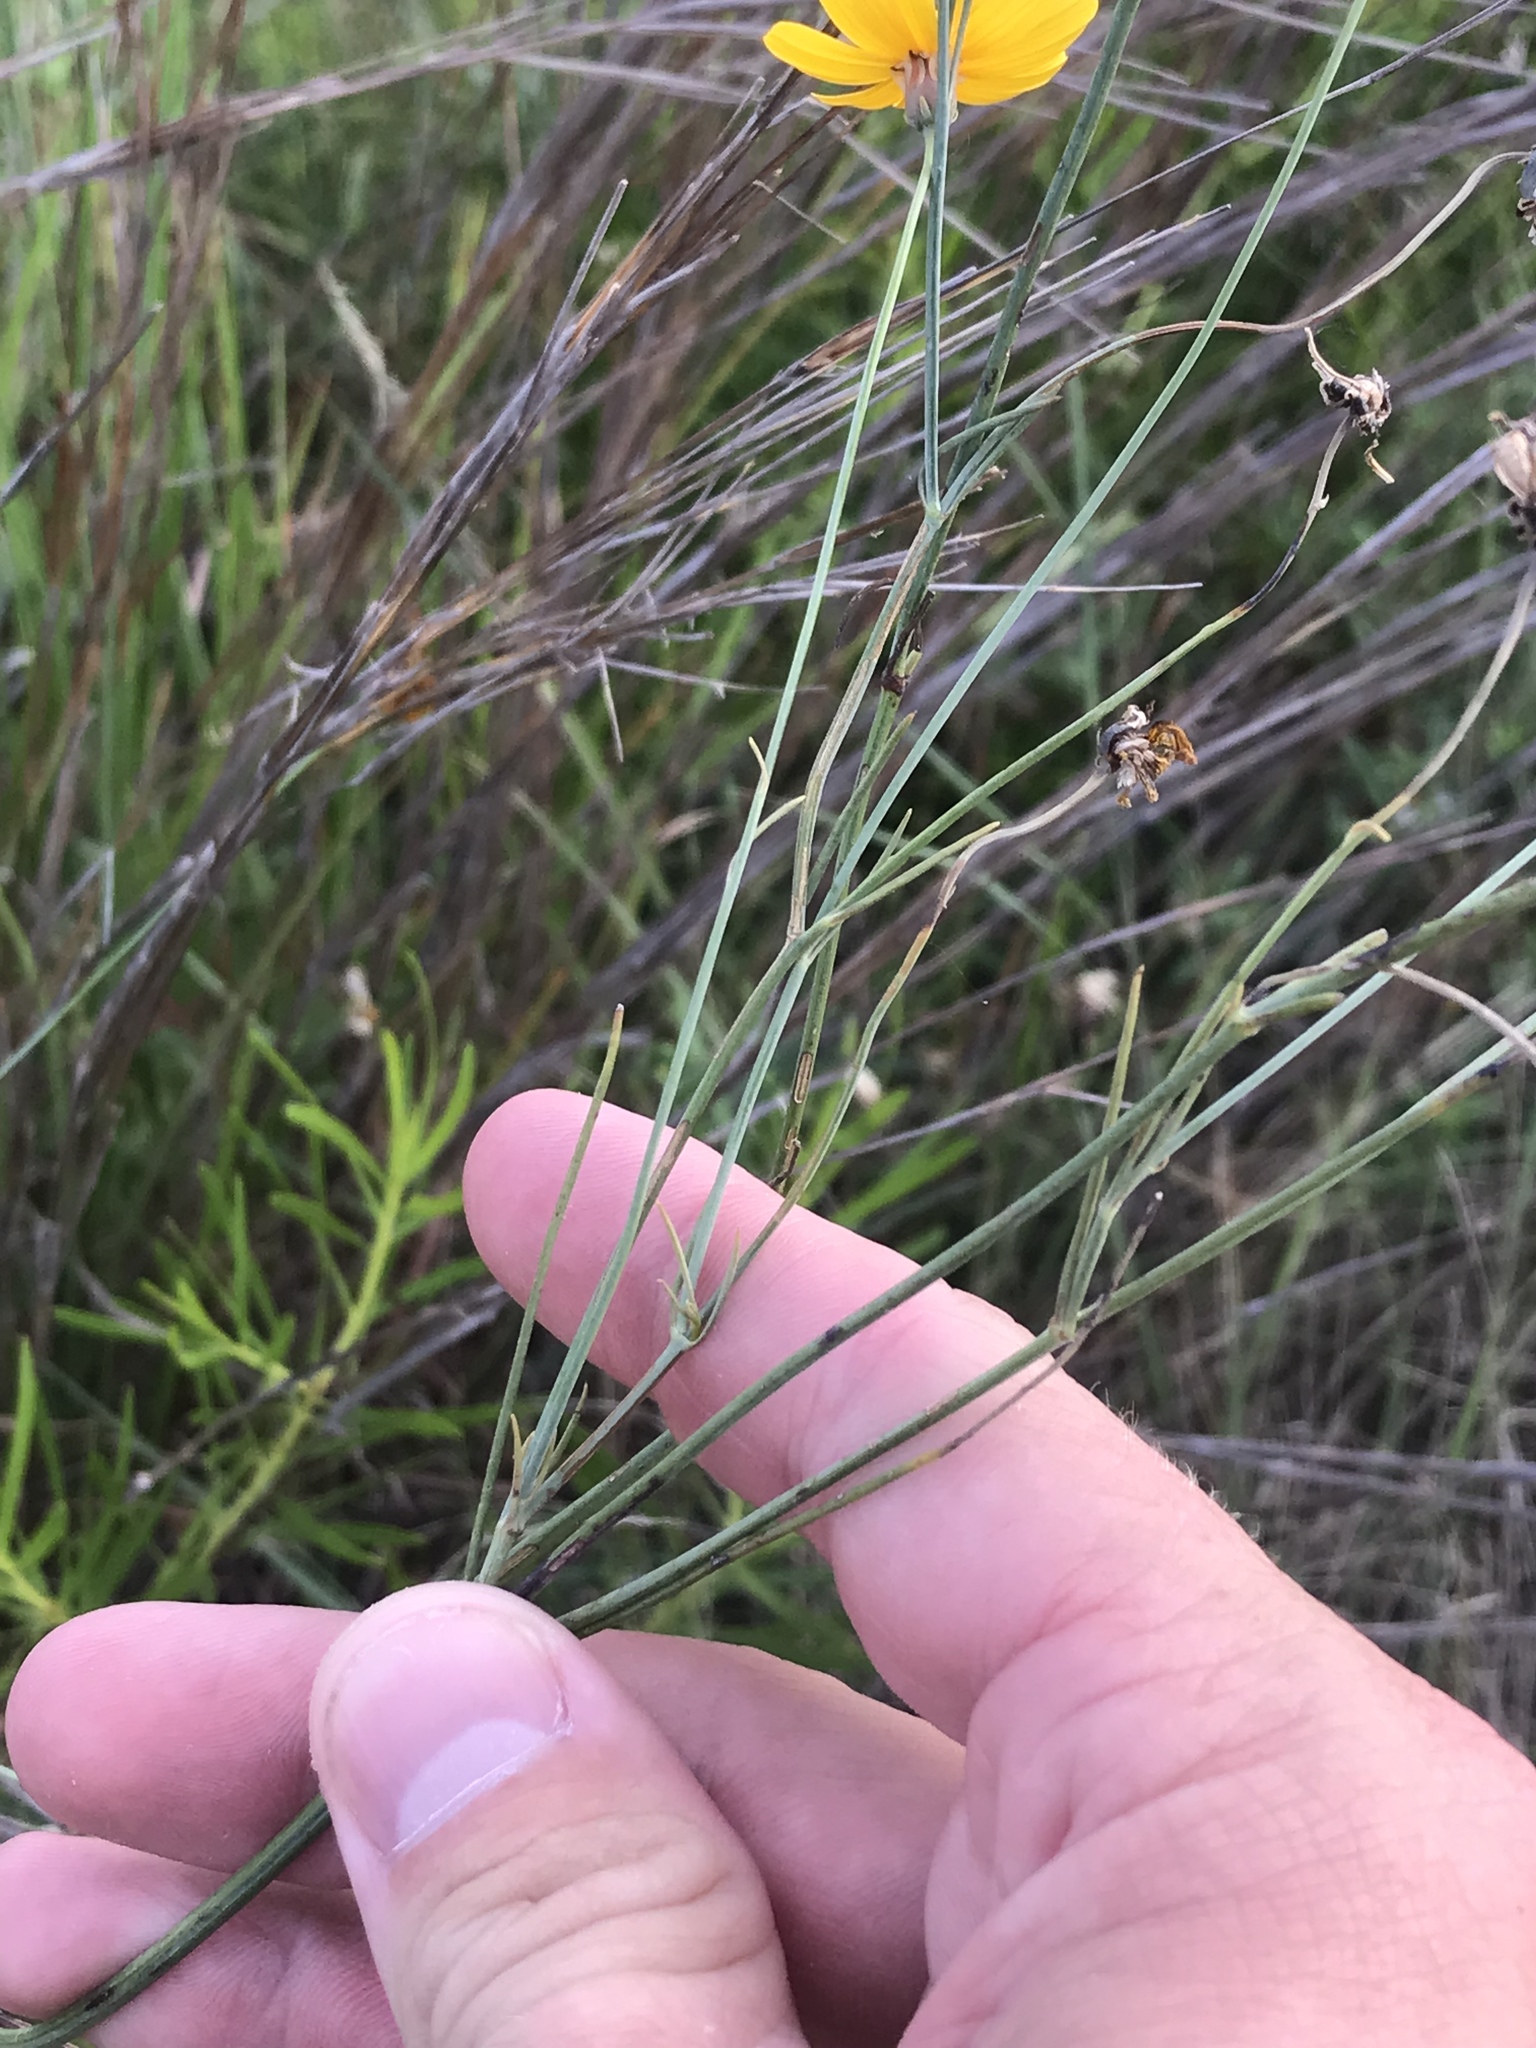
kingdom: Plantae
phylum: Tracheophyta
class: Magnoliopsida
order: Asterales
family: Asteraceae
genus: Thelesperma
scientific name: Thelesperma simplicifolium
